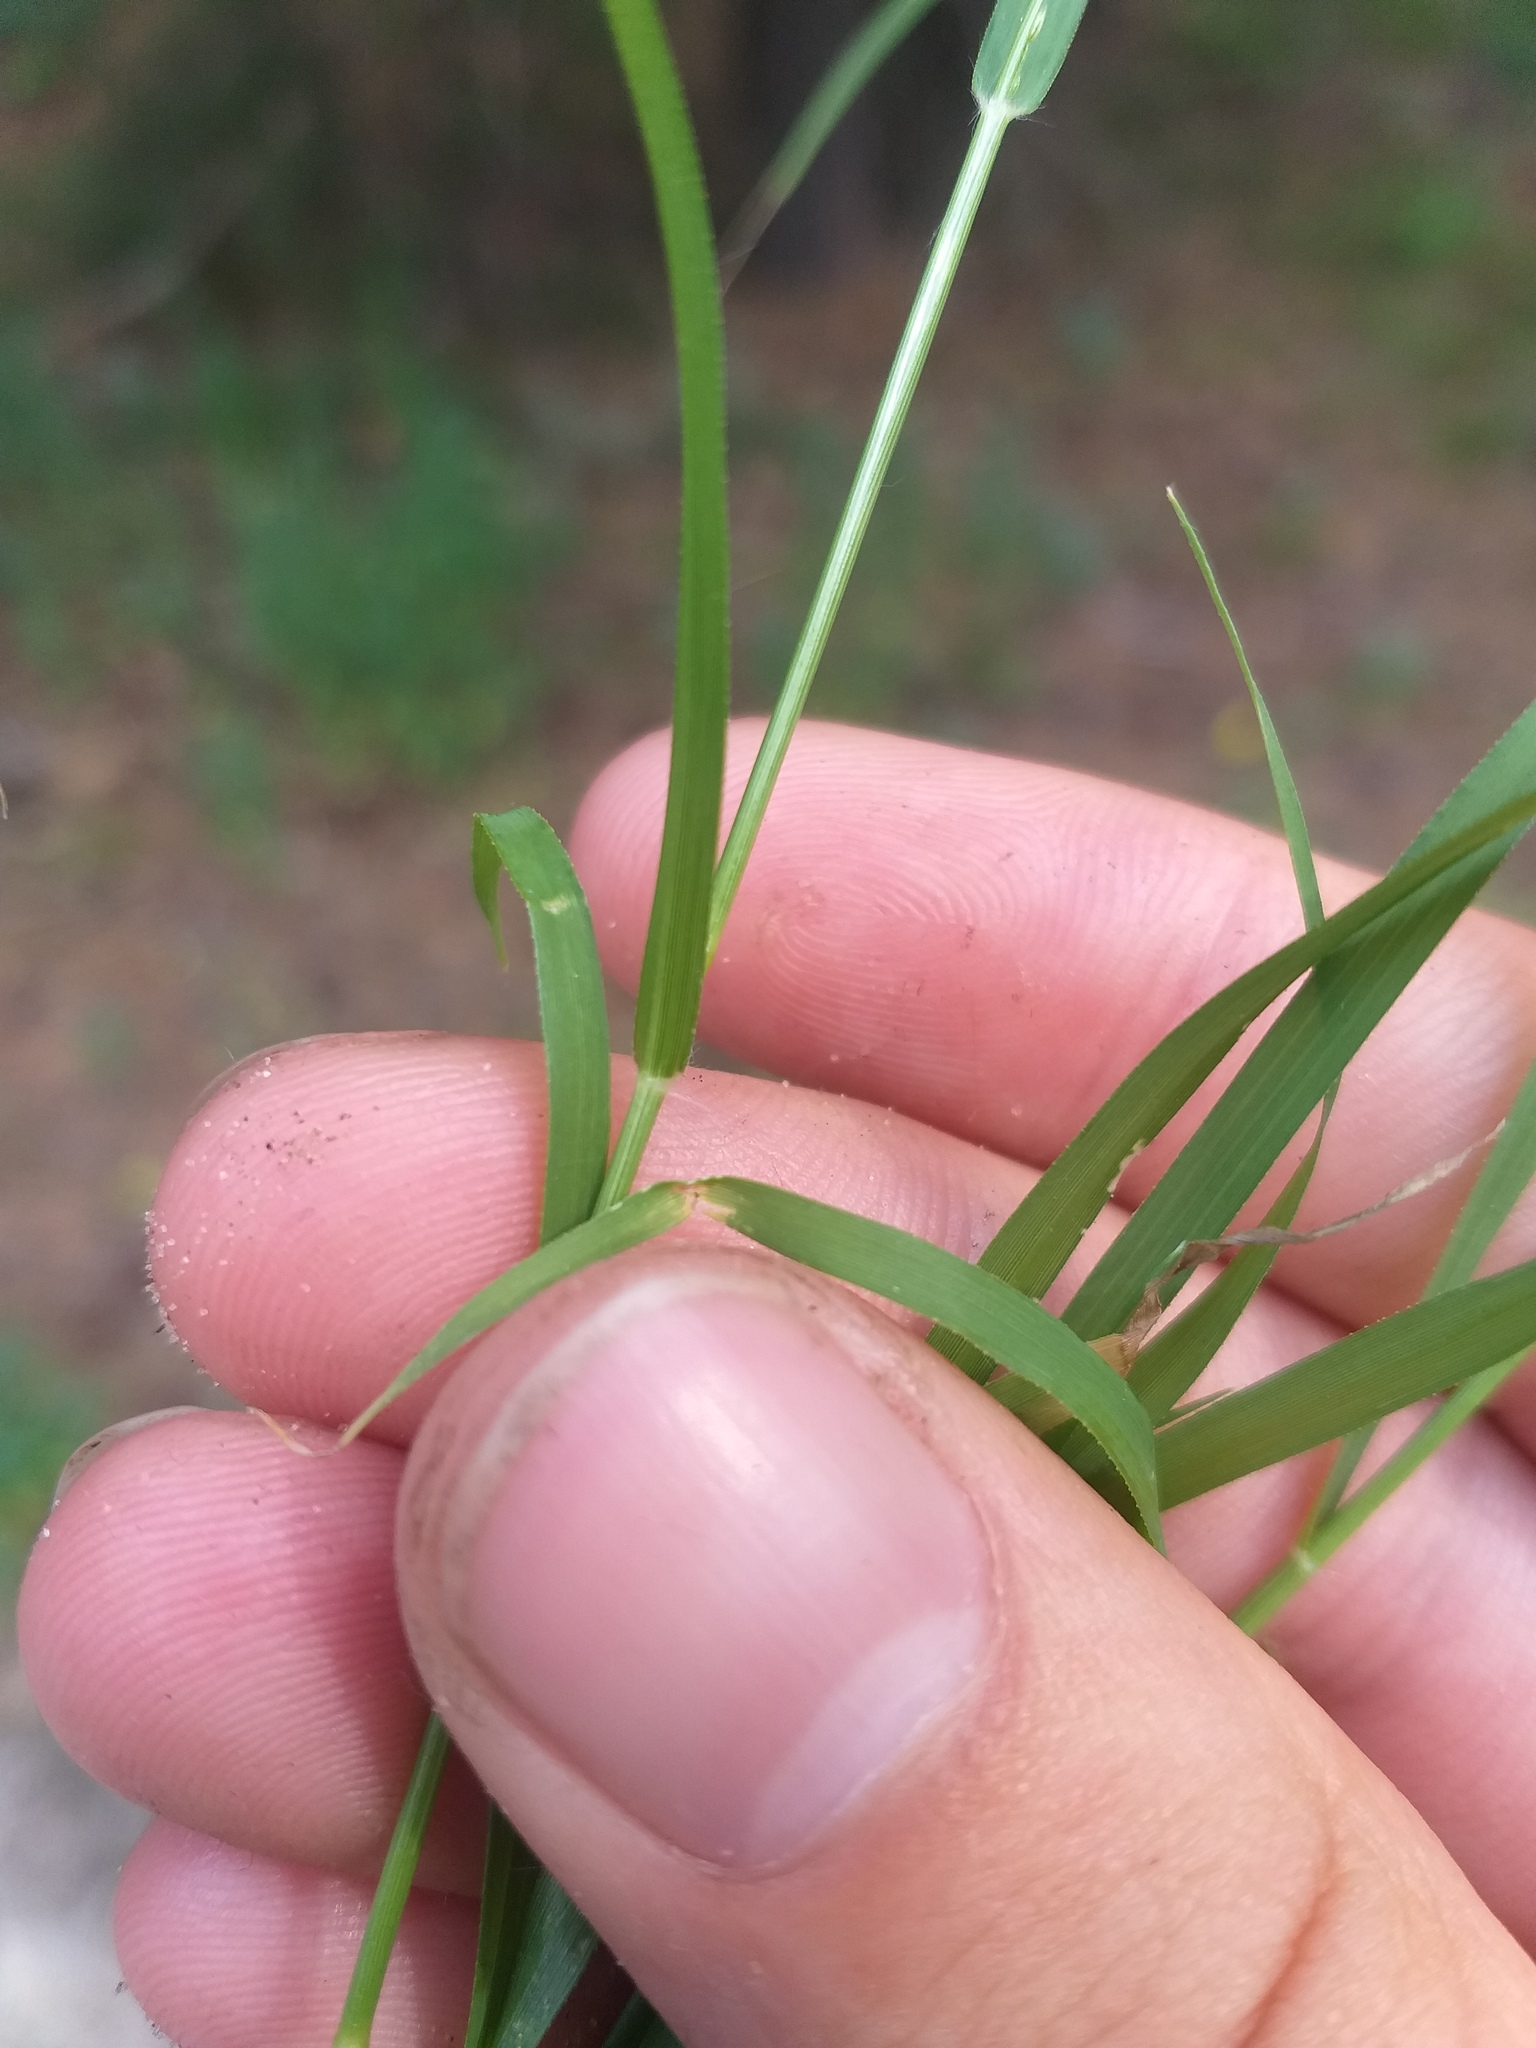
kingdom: Plantae
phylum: Tracheophyta
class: Liliopsida
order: Poales
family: Poaceae
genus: Eragrostis
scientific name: Eragrostis minor
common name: Small love-grass
